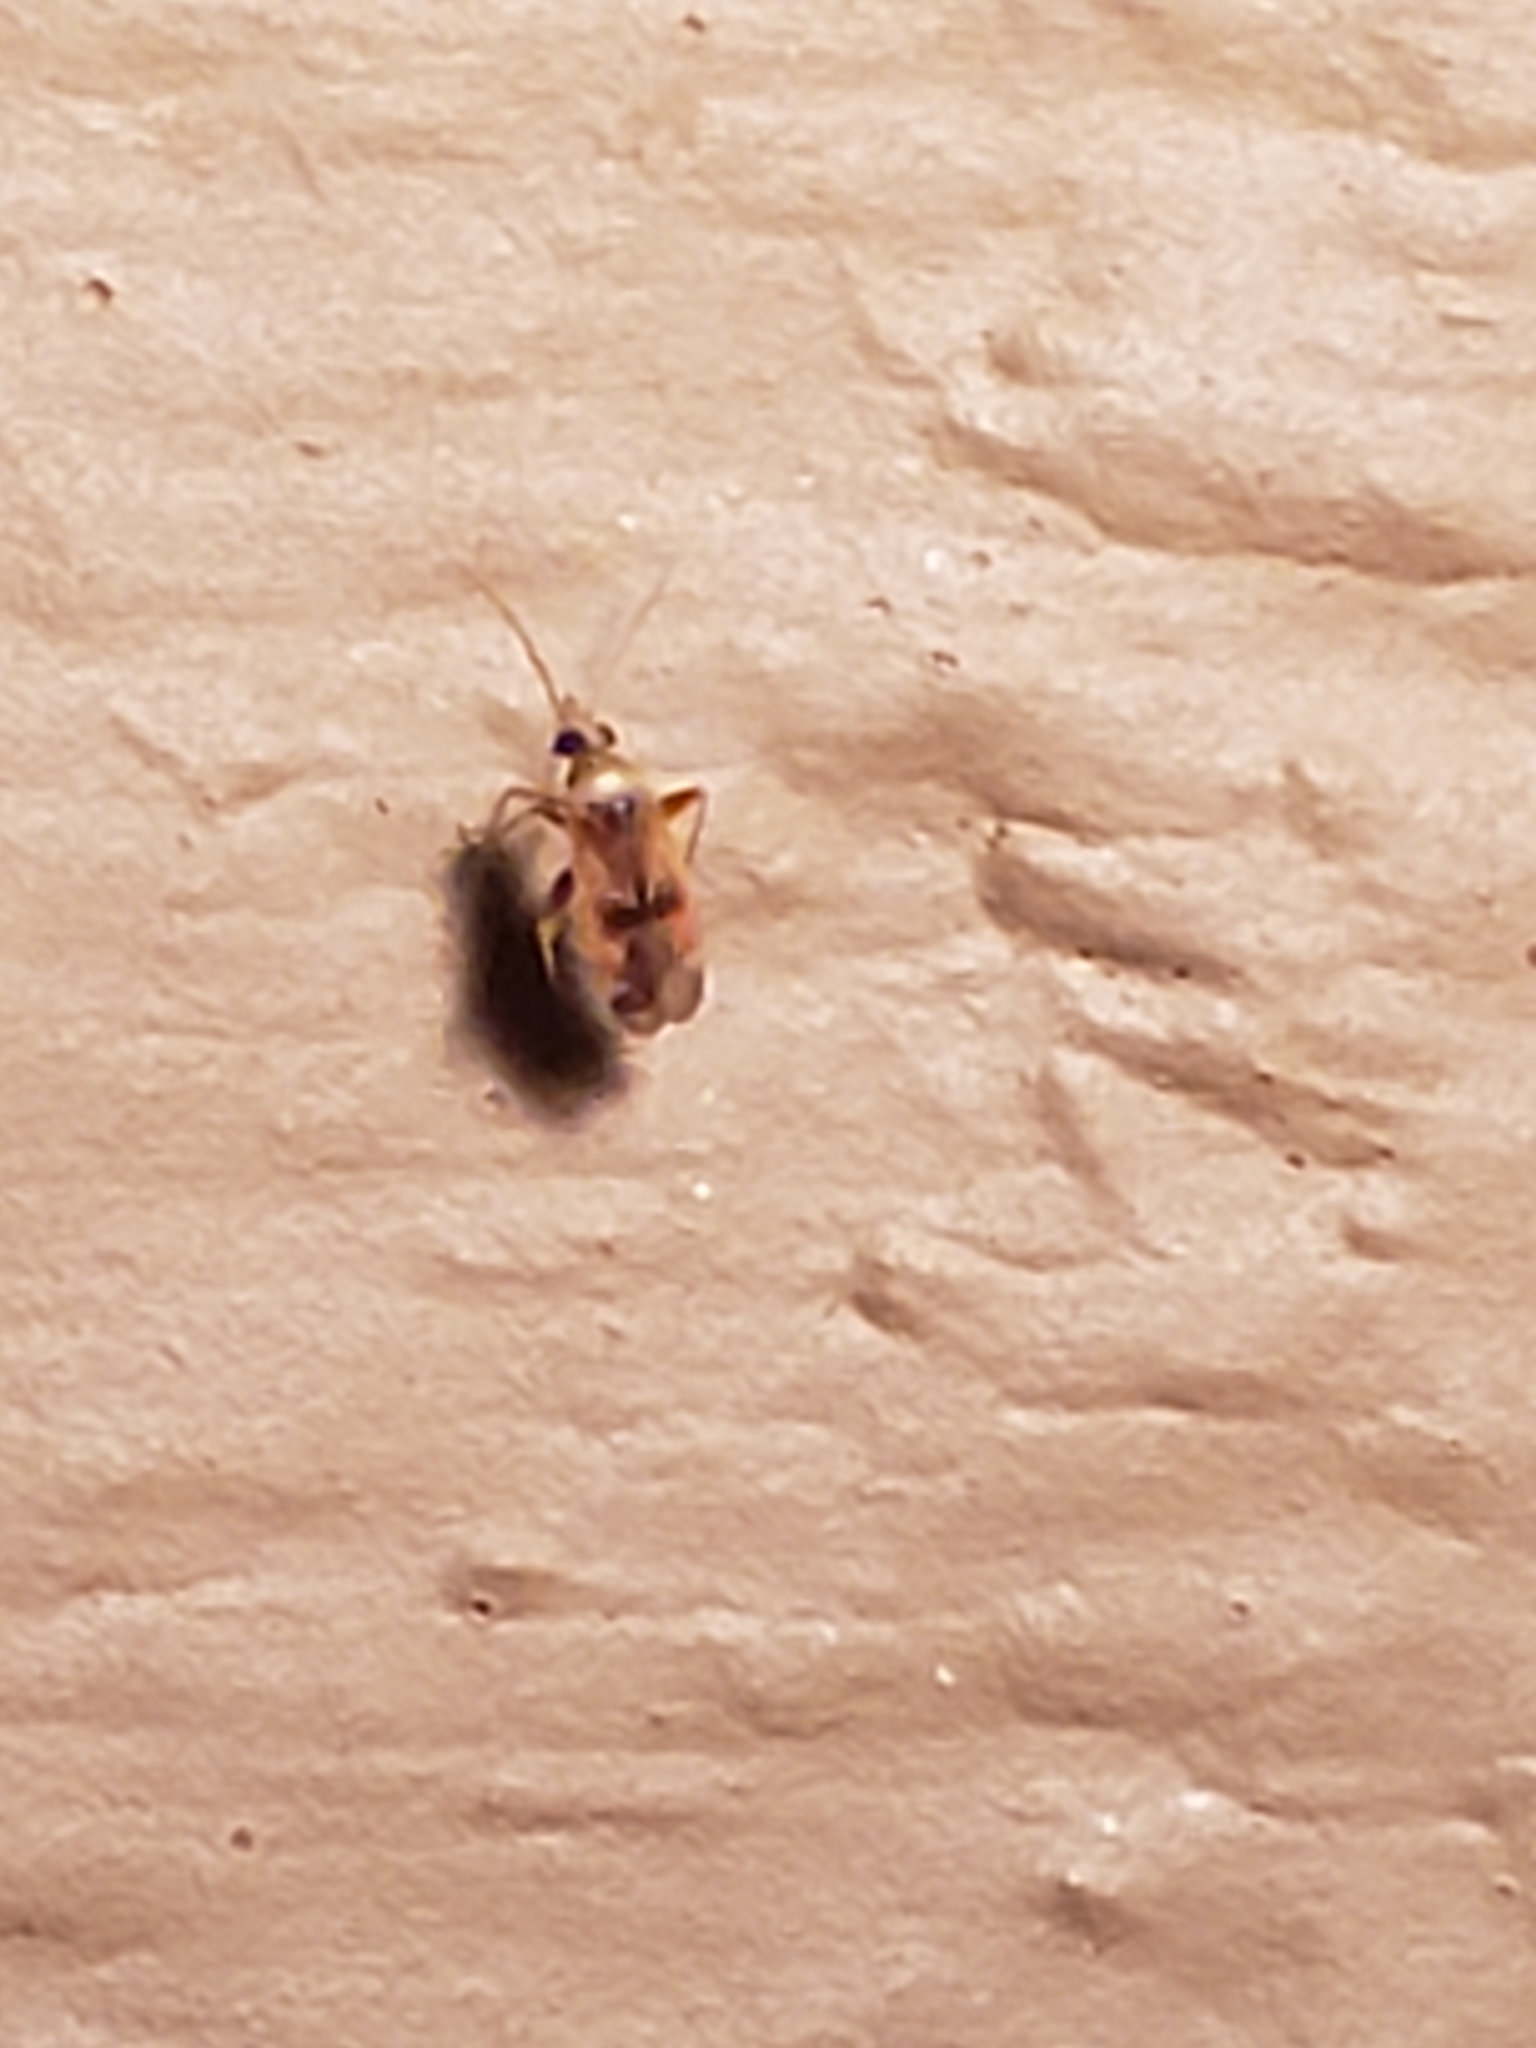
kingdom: Animalia
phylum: Arthropoda
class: Insecta
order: Hemiptera
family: Miridae
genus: Parthenicus
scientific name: Parthenicus juniperi
